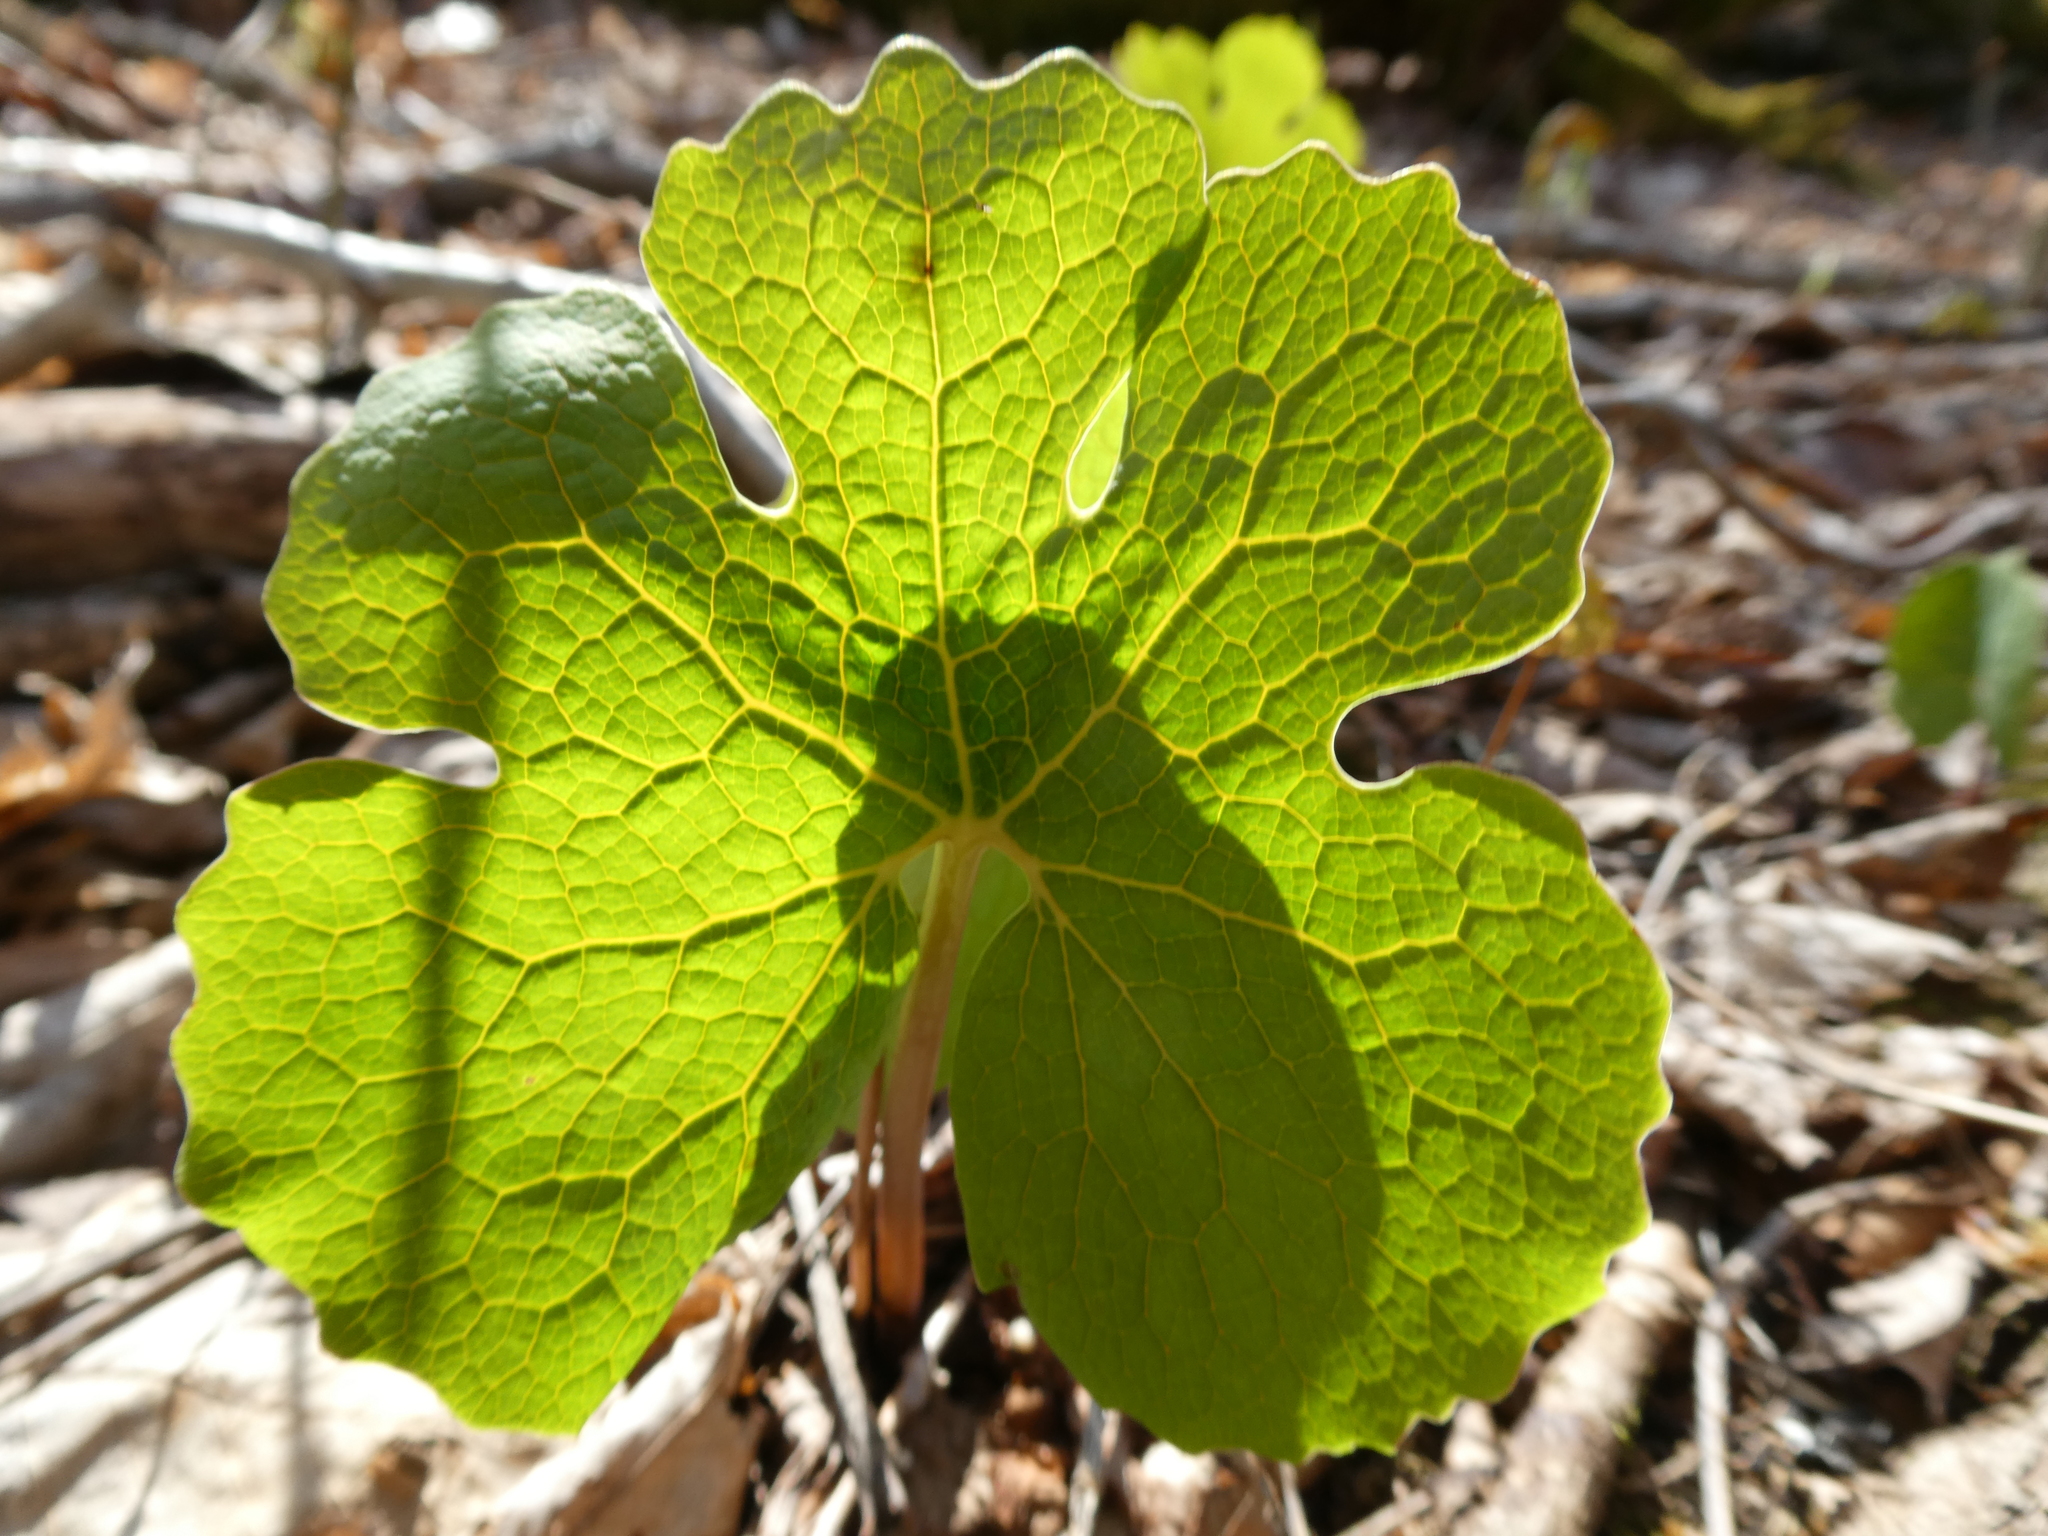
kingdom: Plantae
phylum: Tracheophyta
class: Magnoliopsida
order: Ranunculales
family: Papaveraceae
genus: Sanguinaria
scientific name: Sanguinaria canadensis
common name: Bloodroot
